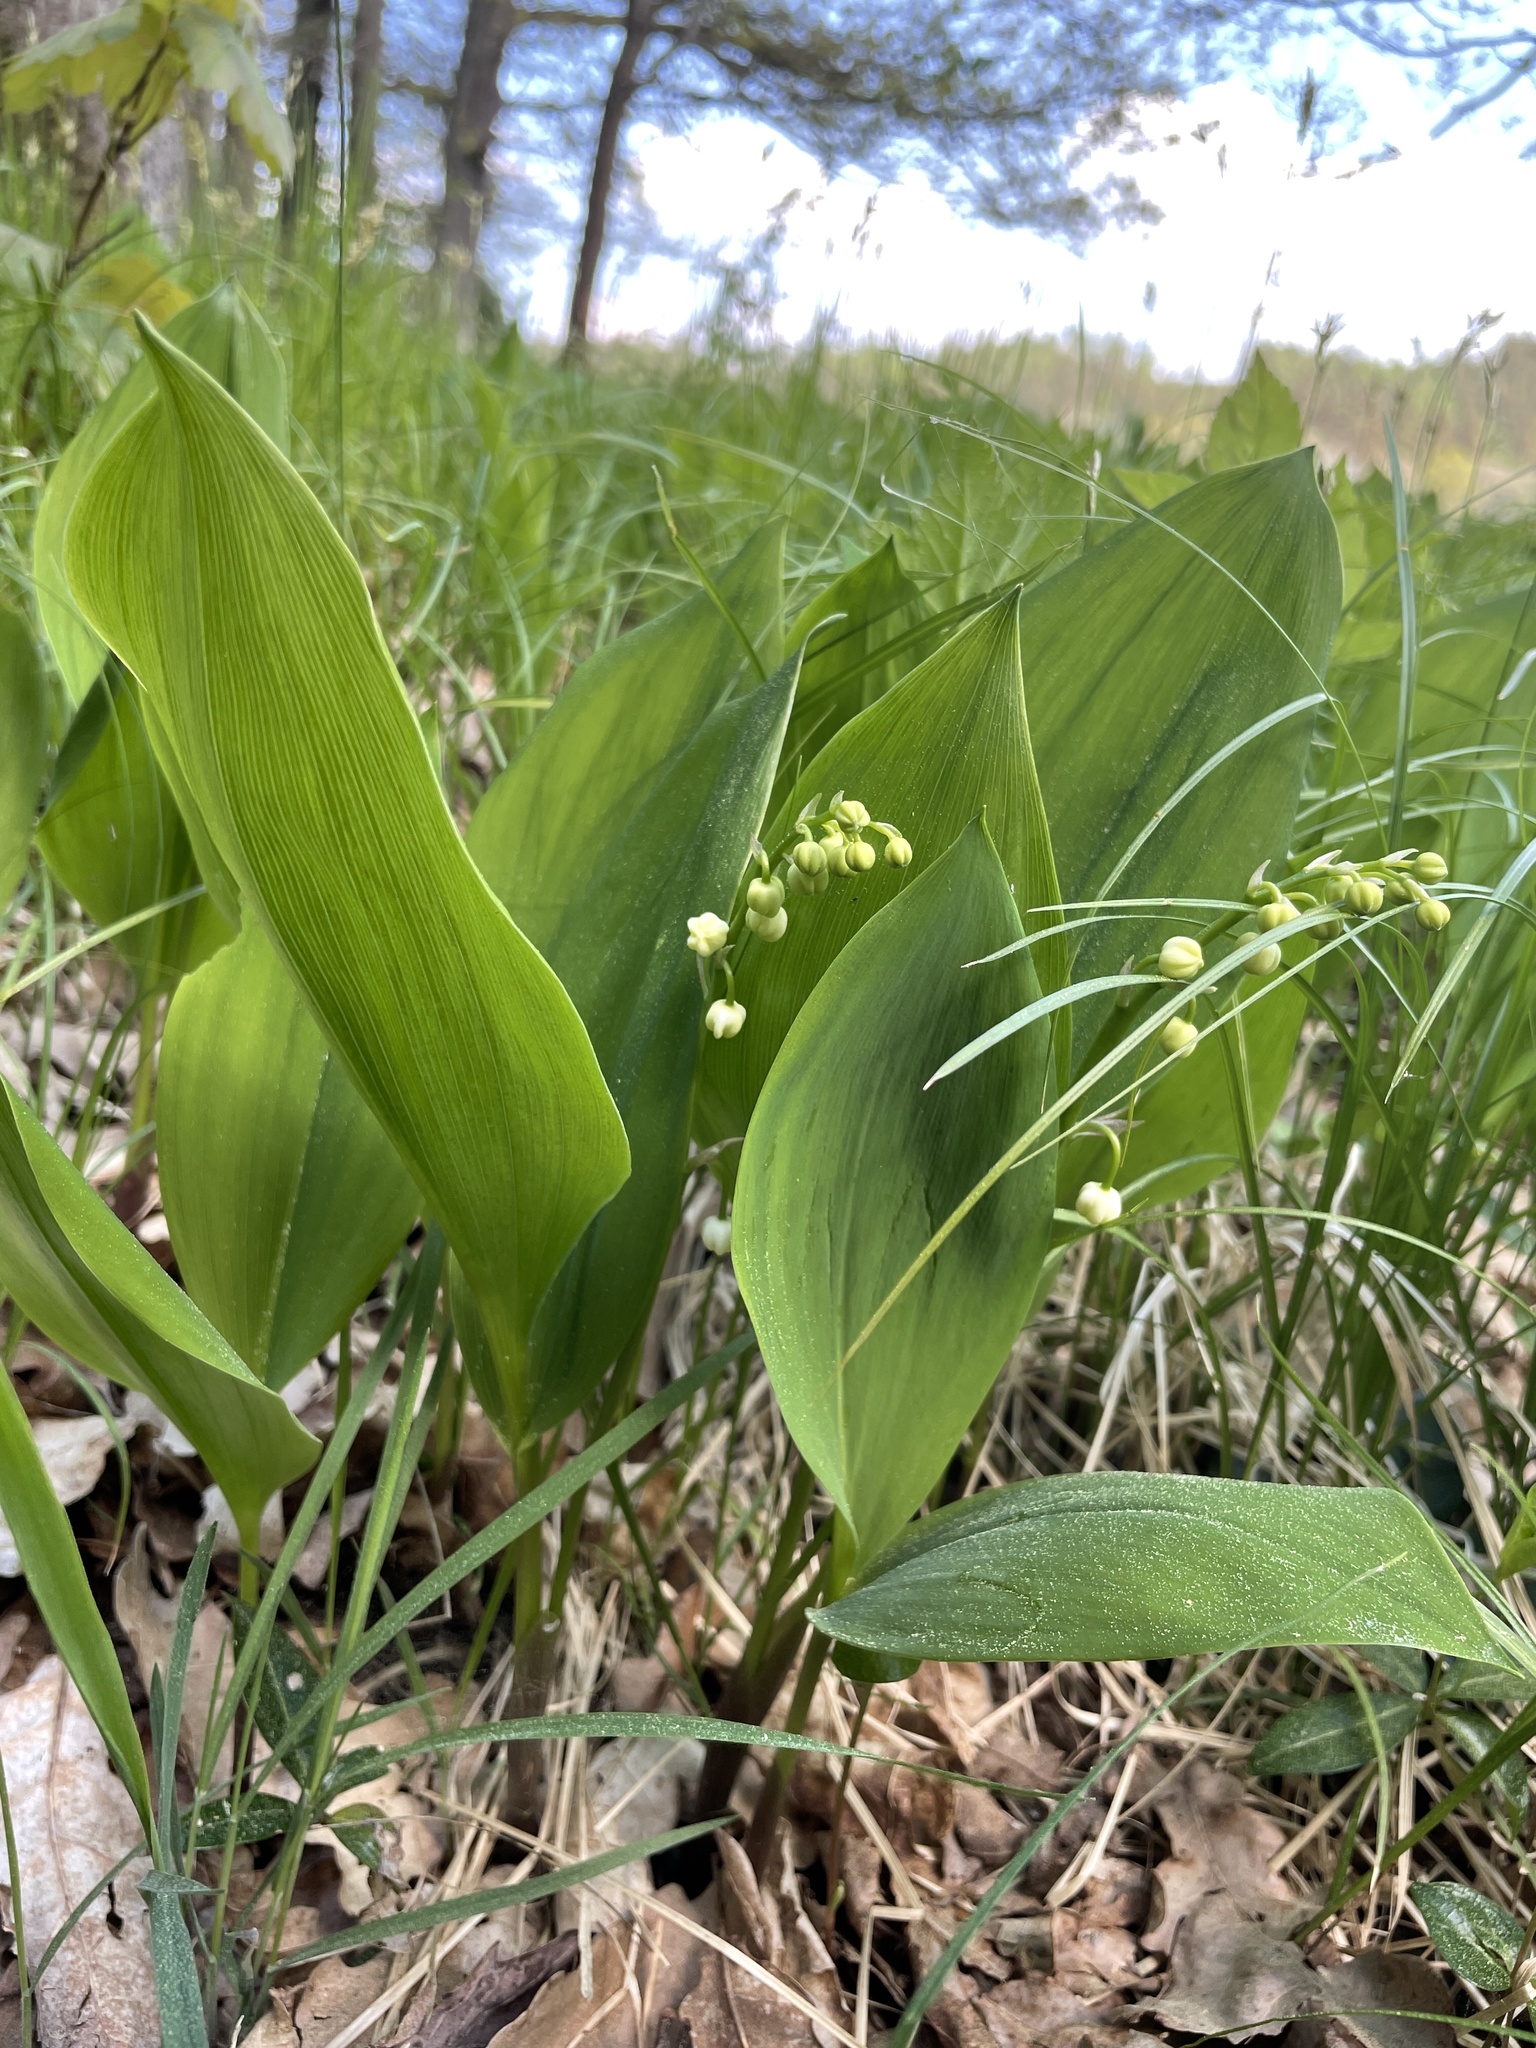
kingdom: Plantae
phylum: Tracheophyta
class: Liliopsida
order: Asparagales
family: Asparagaceae
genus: Convallaria
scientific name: Convallaria majalis
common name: Lily-of-the-valley
